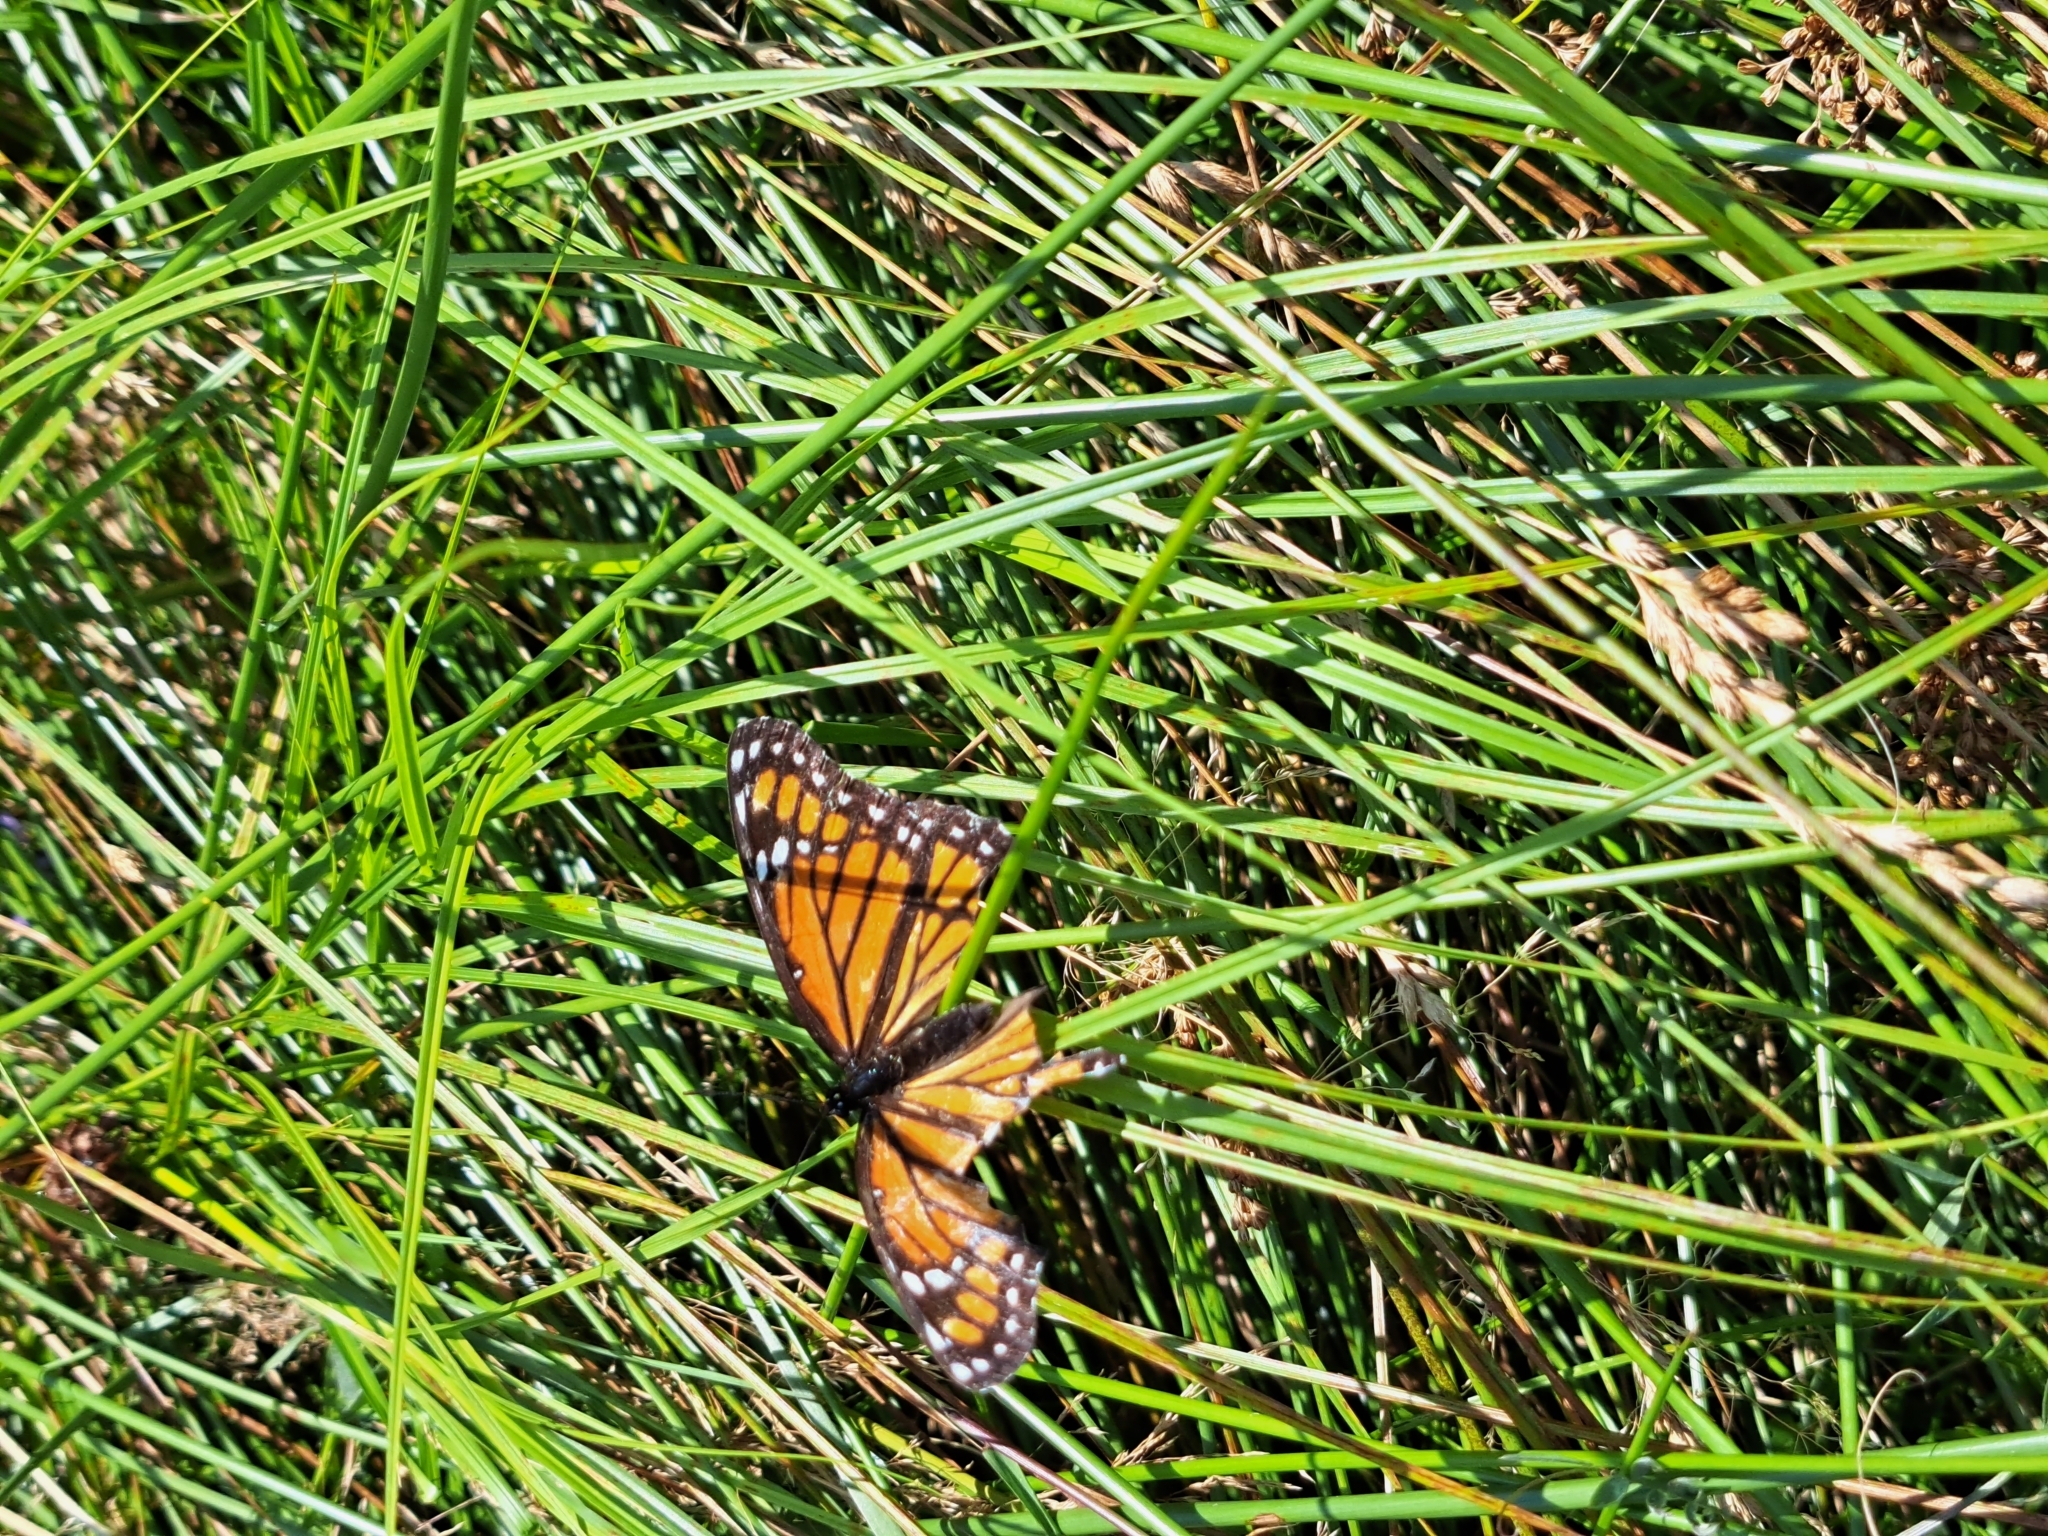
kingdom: Animalia
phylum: Arthropoda
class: Insecta
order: Lepidoptera
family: Nymphalidae
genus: Limenitis
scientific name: Limenitis archippus
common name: Viceroy
